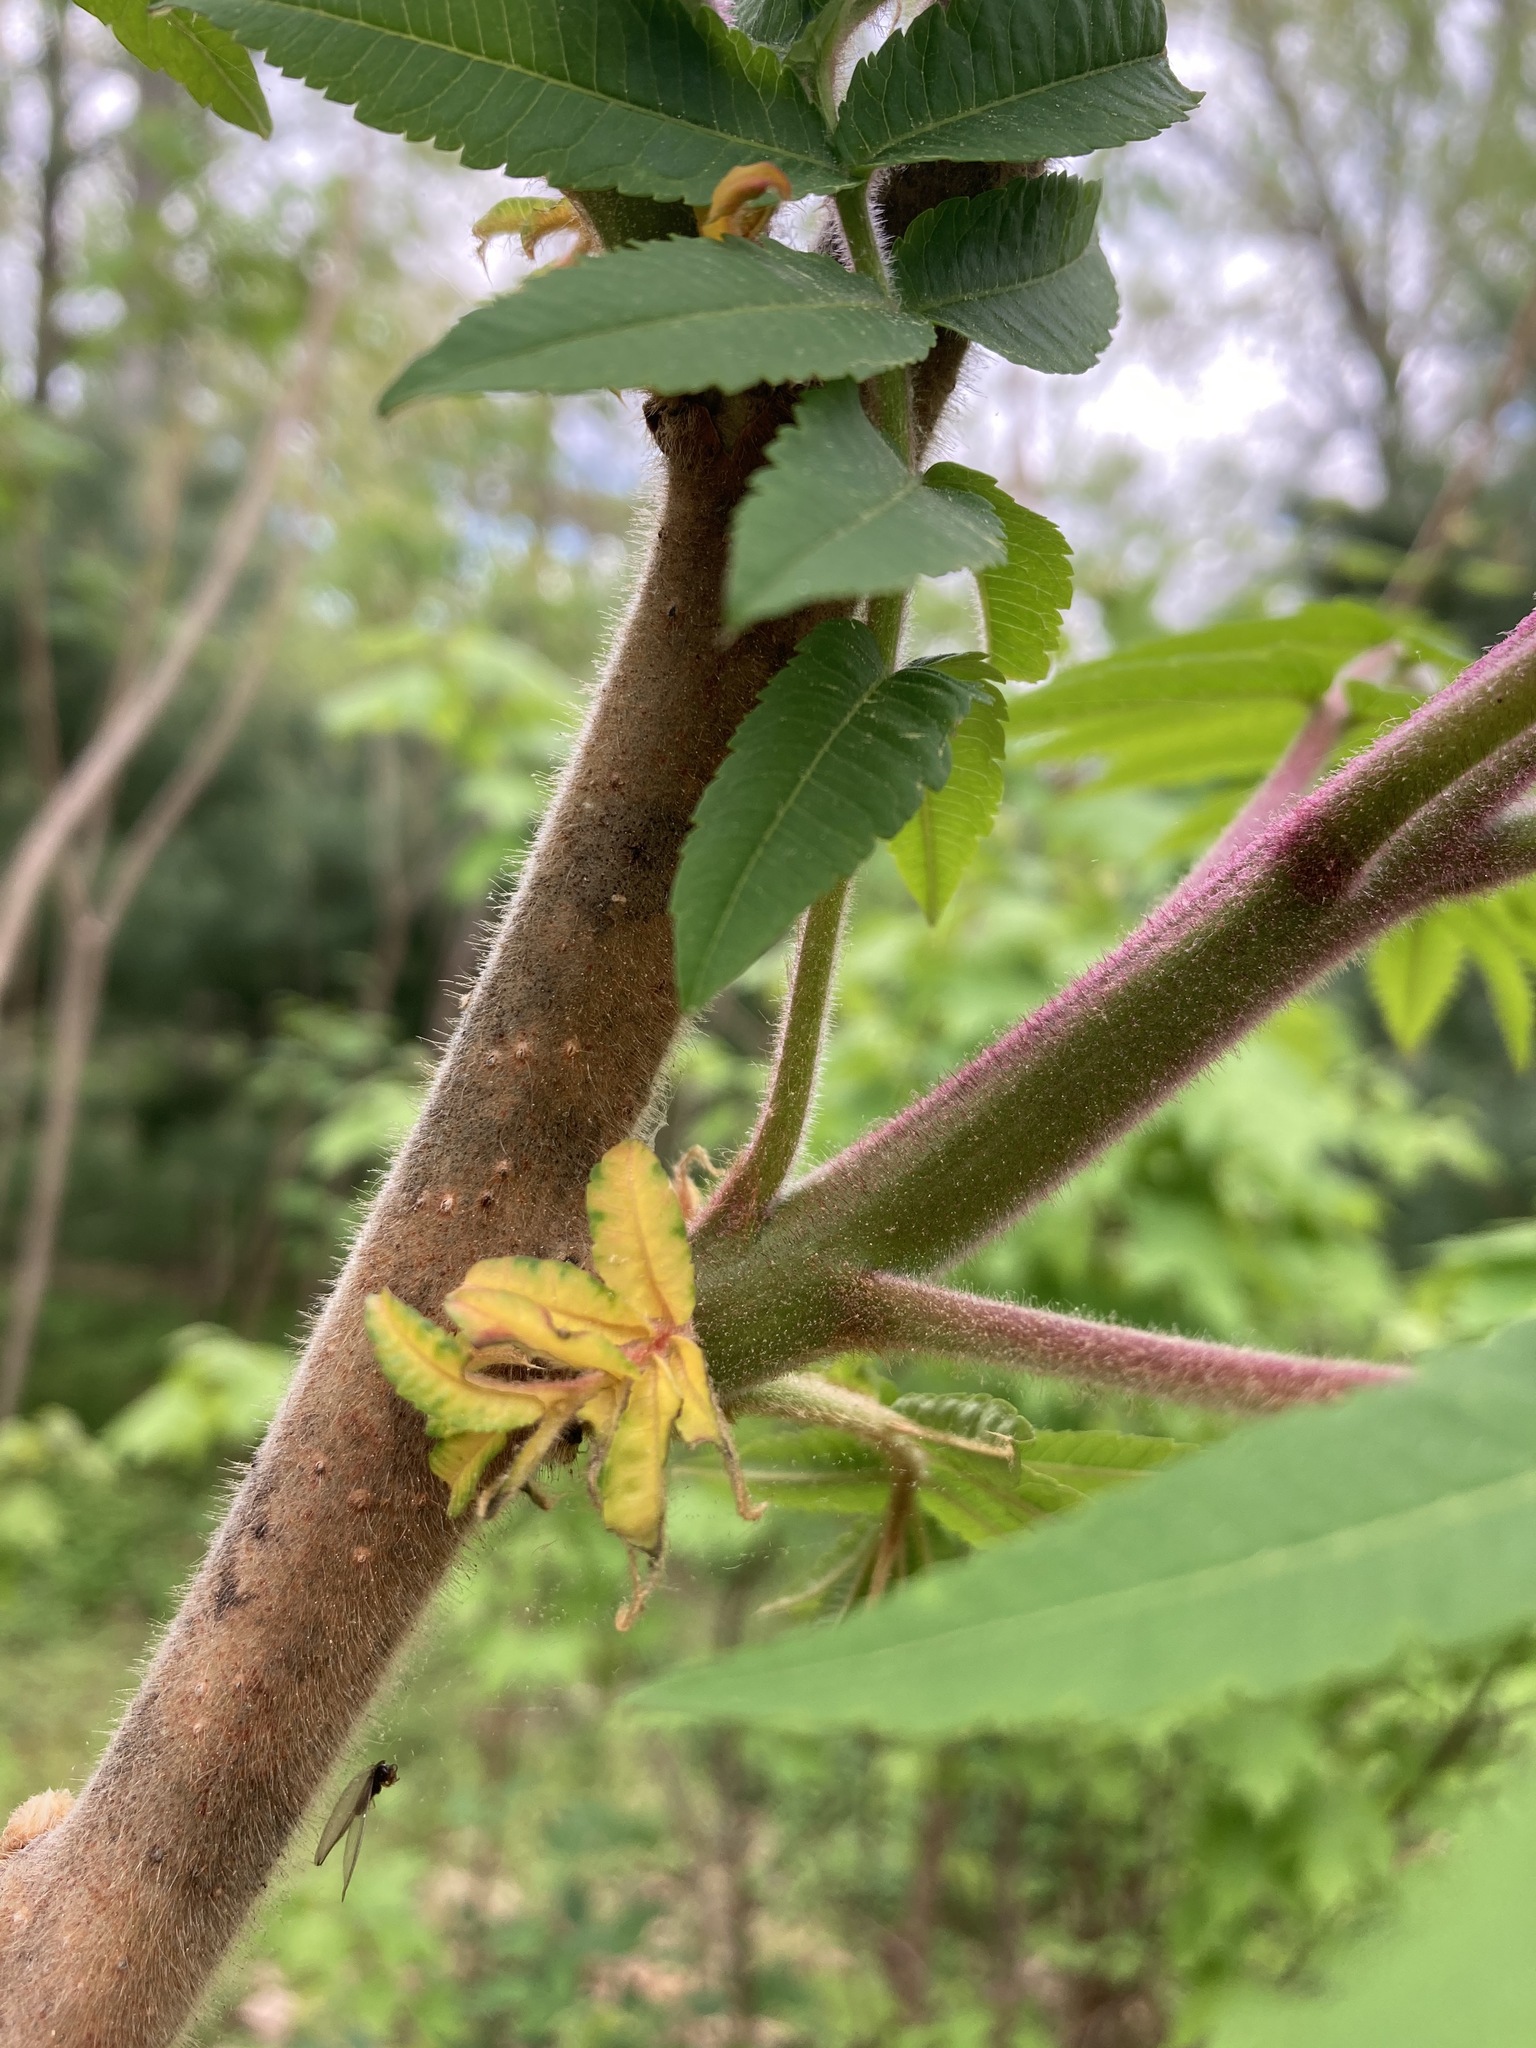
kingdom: Plantae
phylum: Tracheophyta
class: Magnoliopsida
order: Sapindales
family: Anacardiaceae
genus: Rhus
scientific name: Rhus typhina
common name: Staghorn sumac
